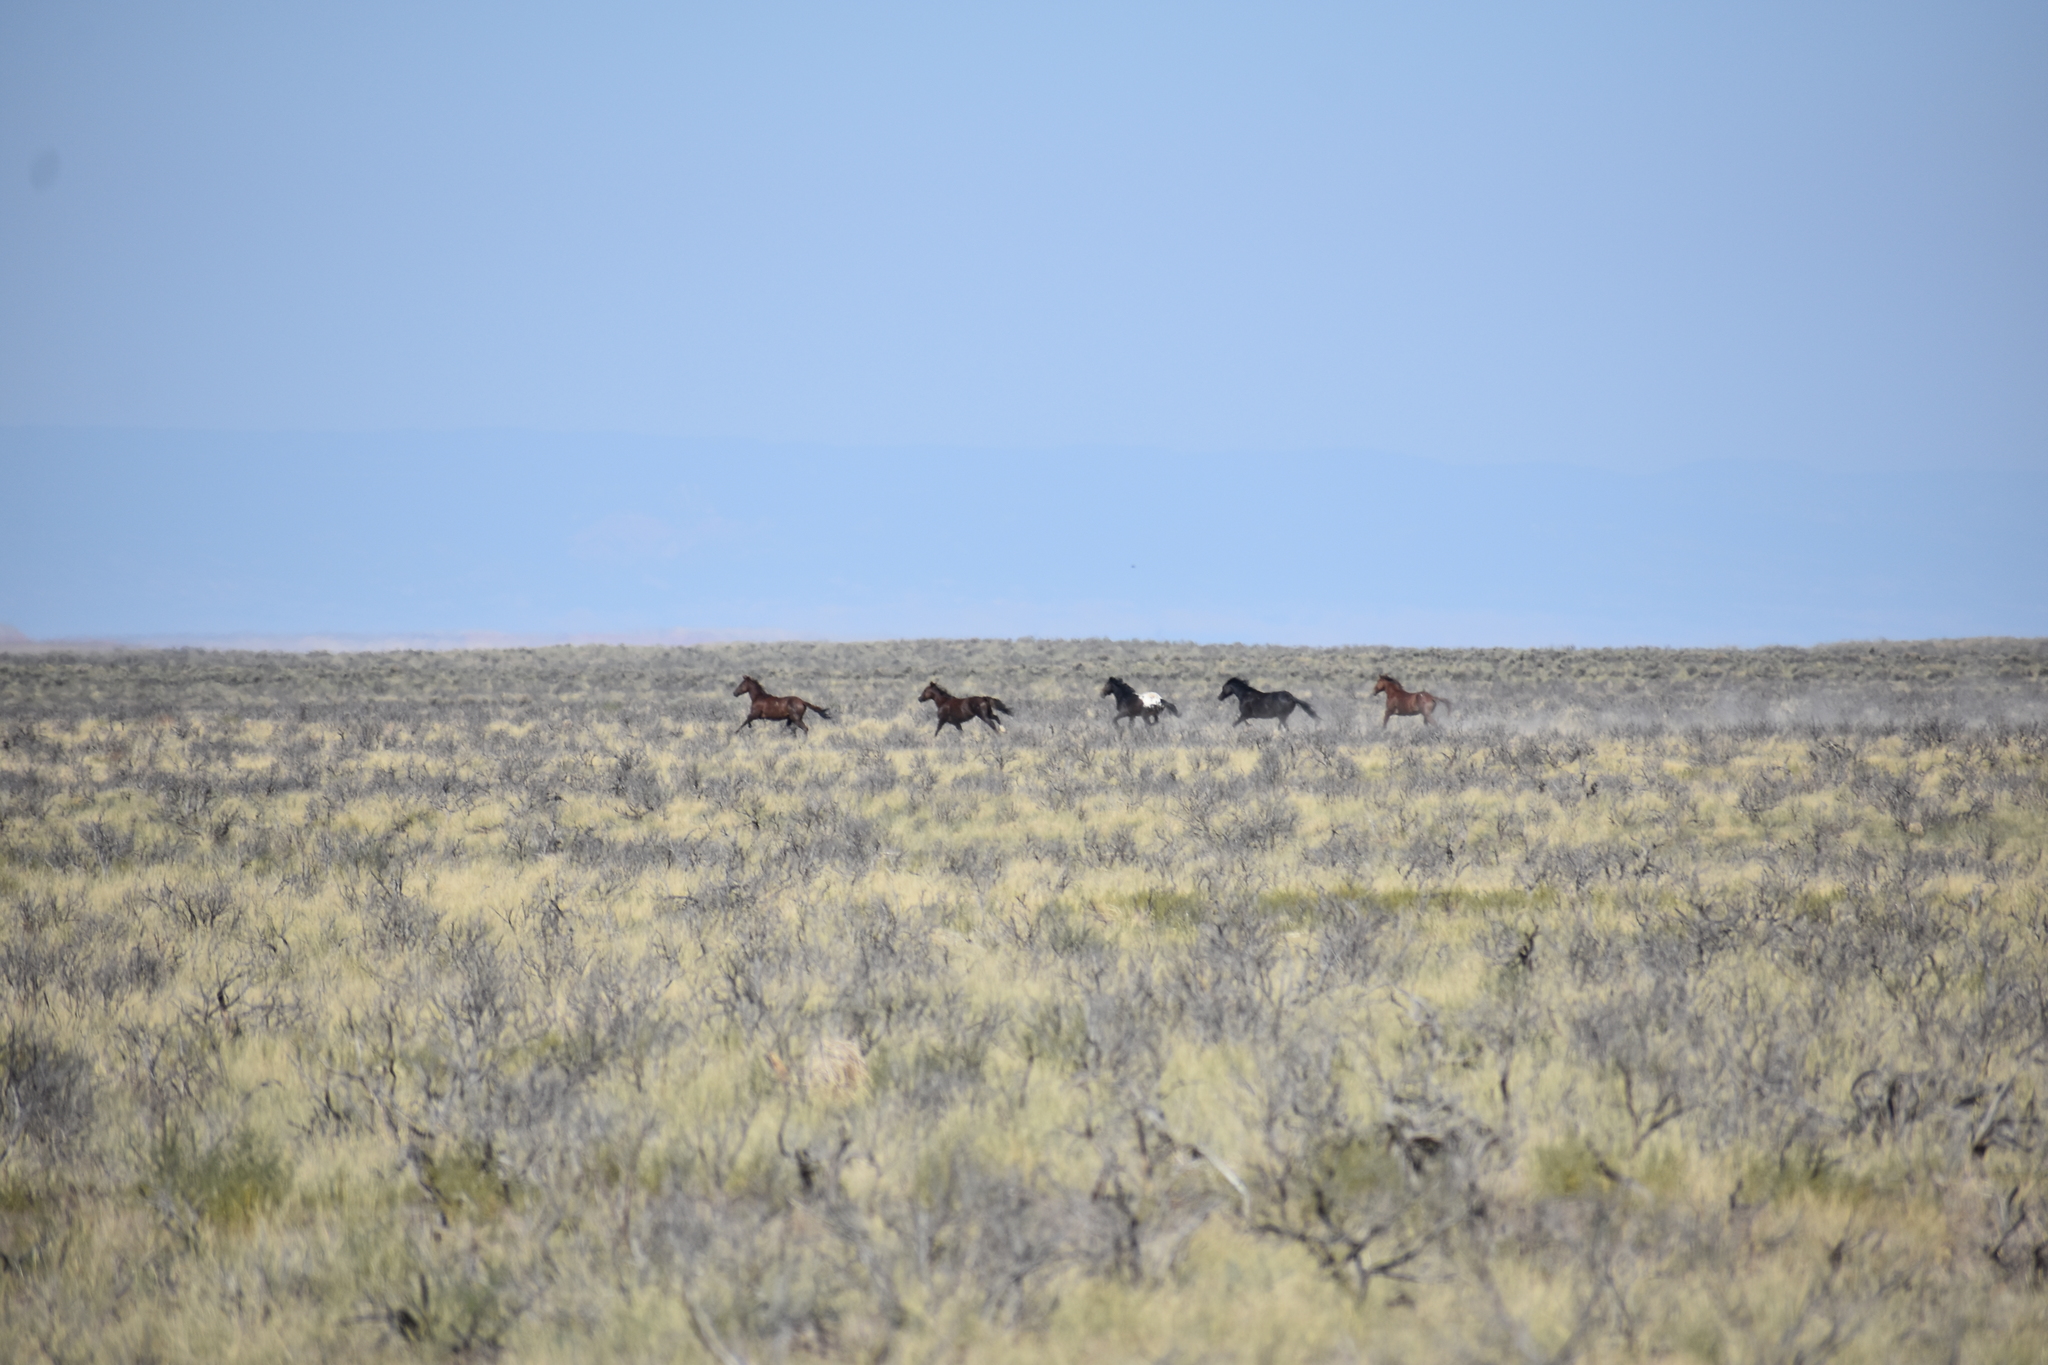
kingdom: Animalia
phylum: Chordata
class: Mammalia
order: Perissodactyla
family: Equidae
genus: Equus
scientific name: Equus caballus
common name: Horse
